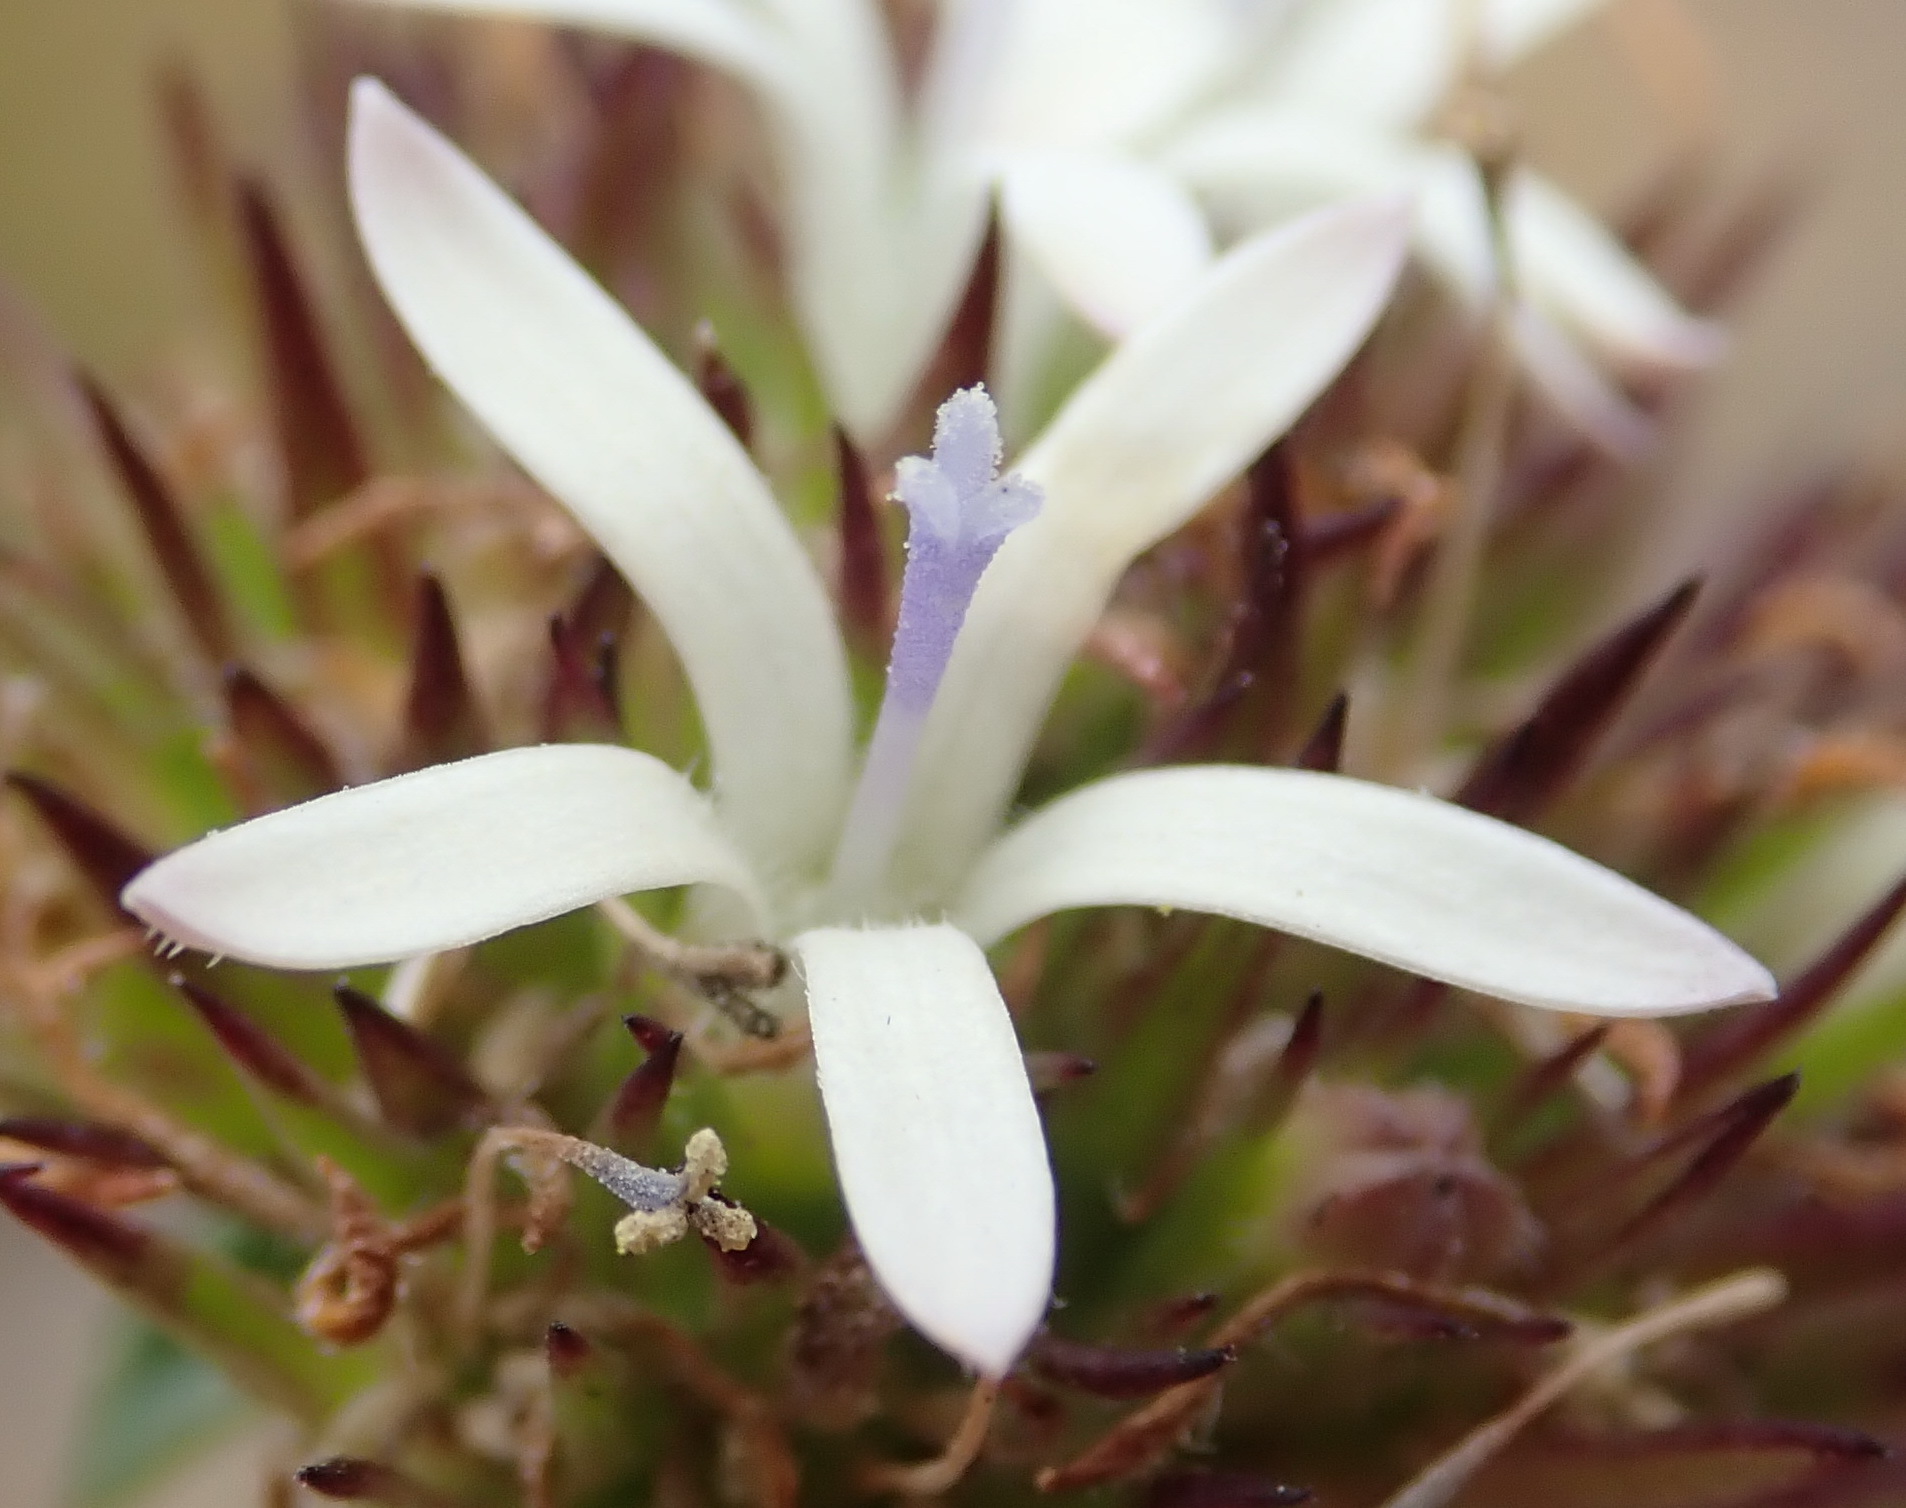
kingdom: Plantae
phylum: Tracheophyta
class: Magnoliopsida
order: Asterales
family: Campanulaceae
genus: Wahlenbergia
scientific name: Wahlenbergia desmantha
